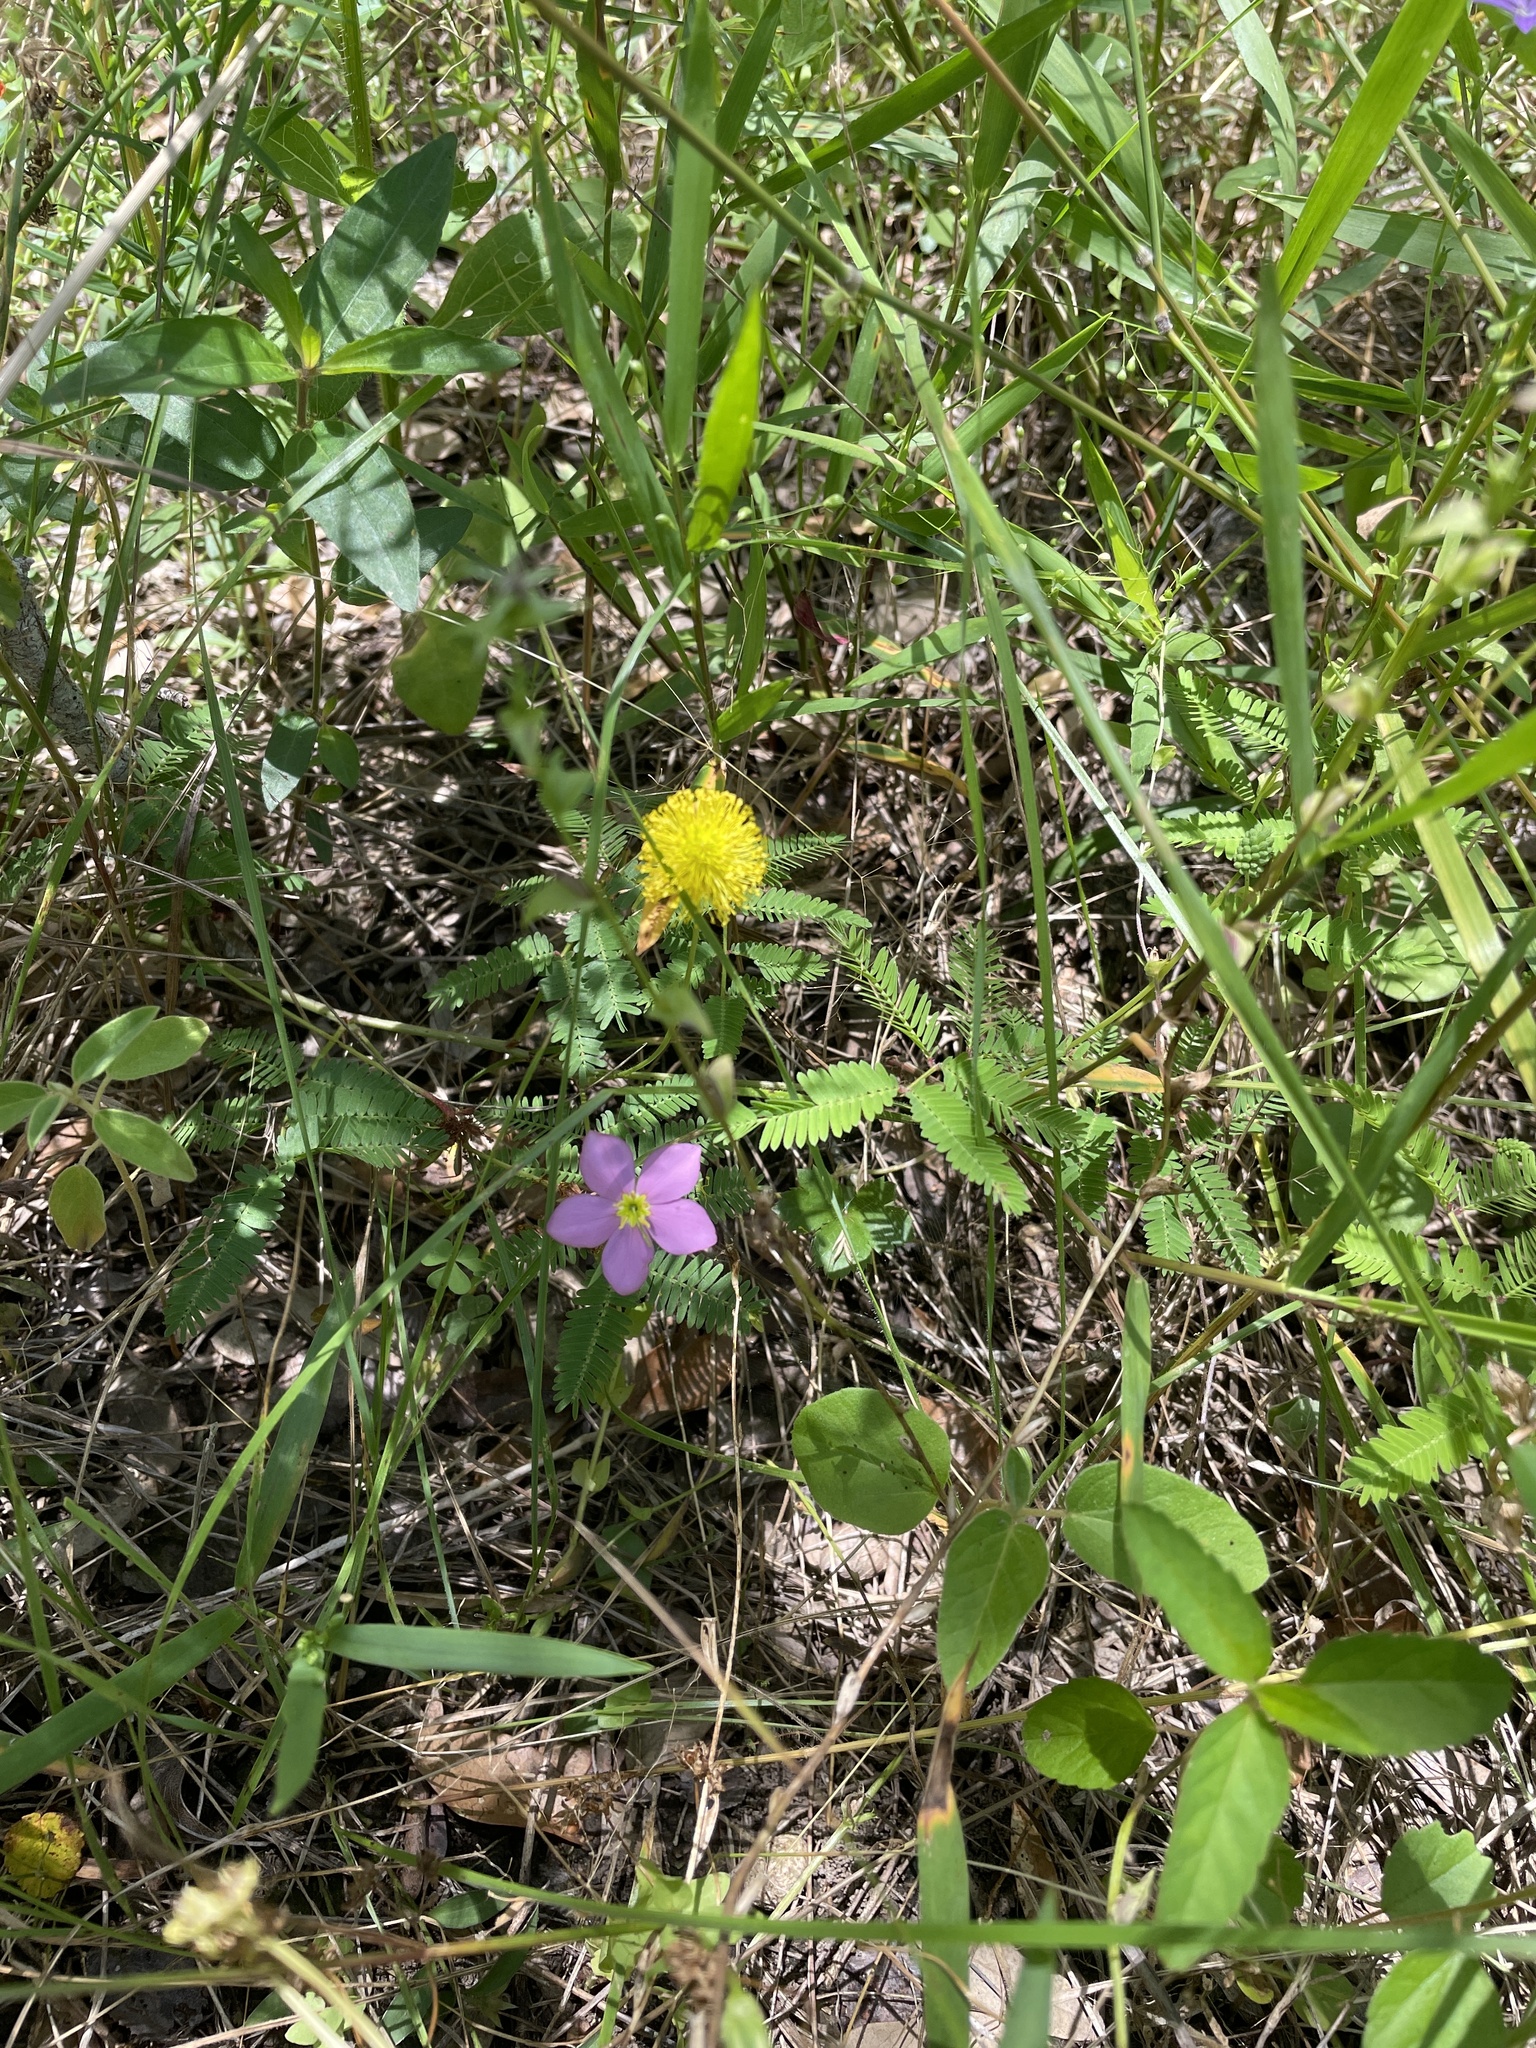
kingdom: Plantae
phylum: Tracheophyta
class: Magnoliopsida
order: Fabales
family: Fabaceae
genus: Neptunia
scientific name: Neptunia lutea
